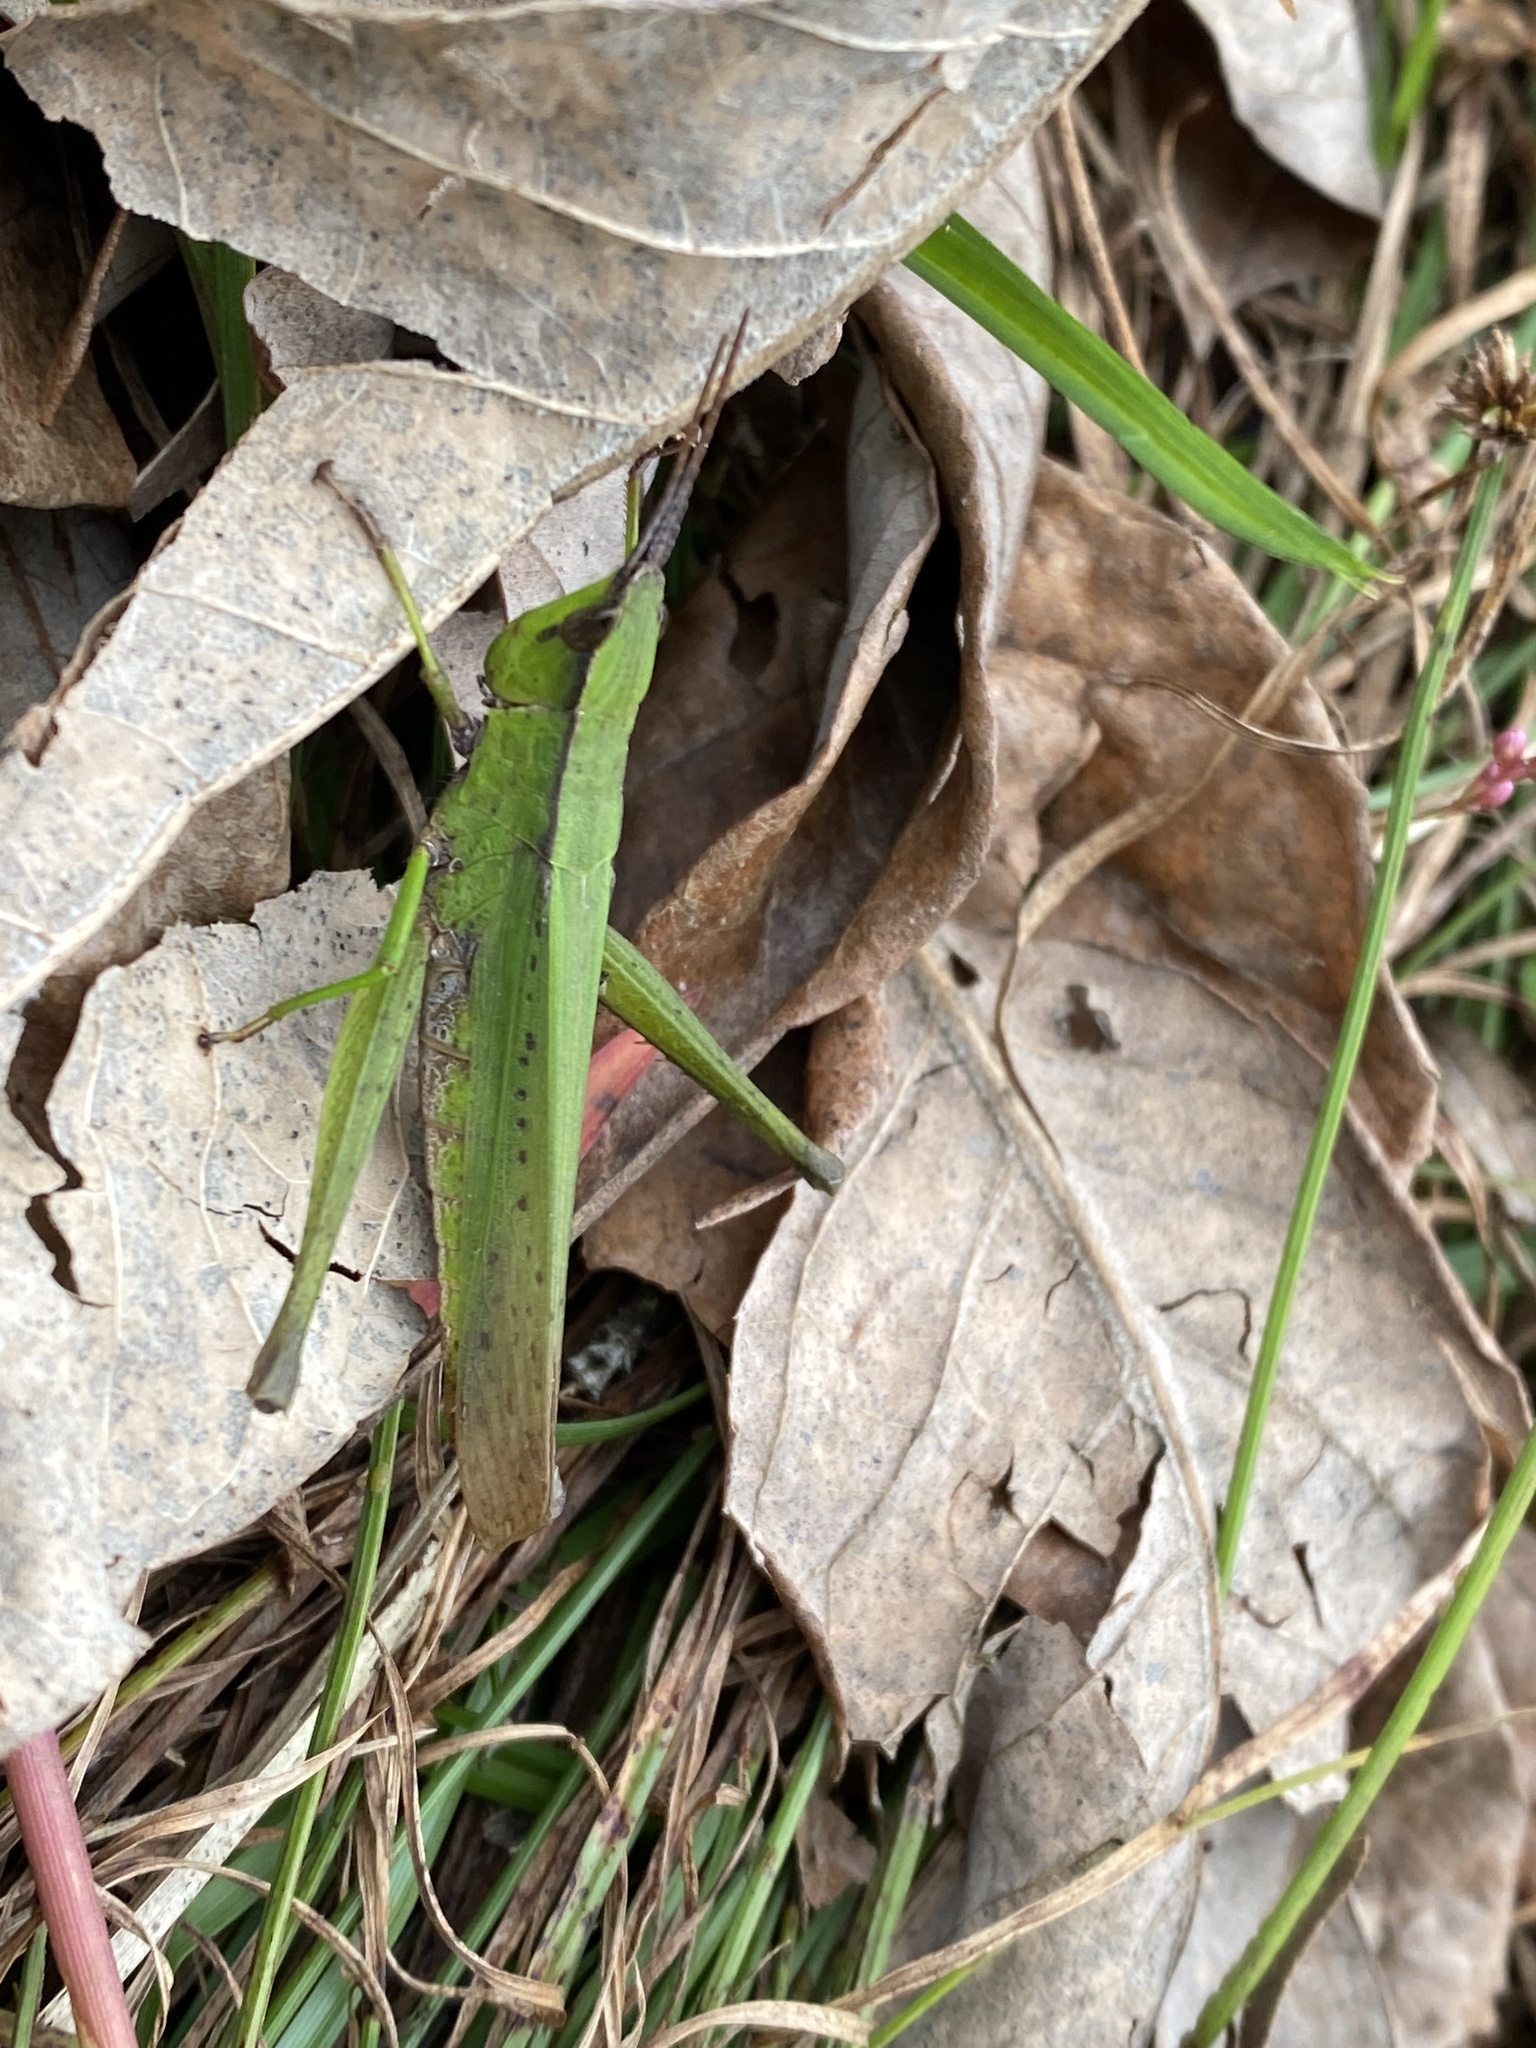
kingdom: Animalia
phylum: Arthropoda
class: Insecta
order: Orthoptera
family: Acrididae
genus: Metaleptea
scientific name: Metaleptea brevicornis
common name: Clipped-wing grasshopper
